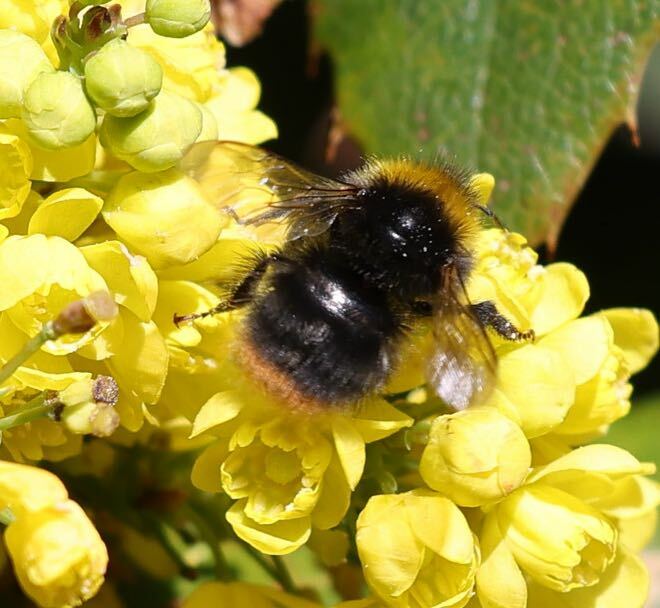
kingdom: Animalia
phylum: Arthropoda
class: Insecta
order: Hymenoptera
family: Apidae
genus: Bombus
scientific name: Bombus pratorum
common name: Early humble-bee
